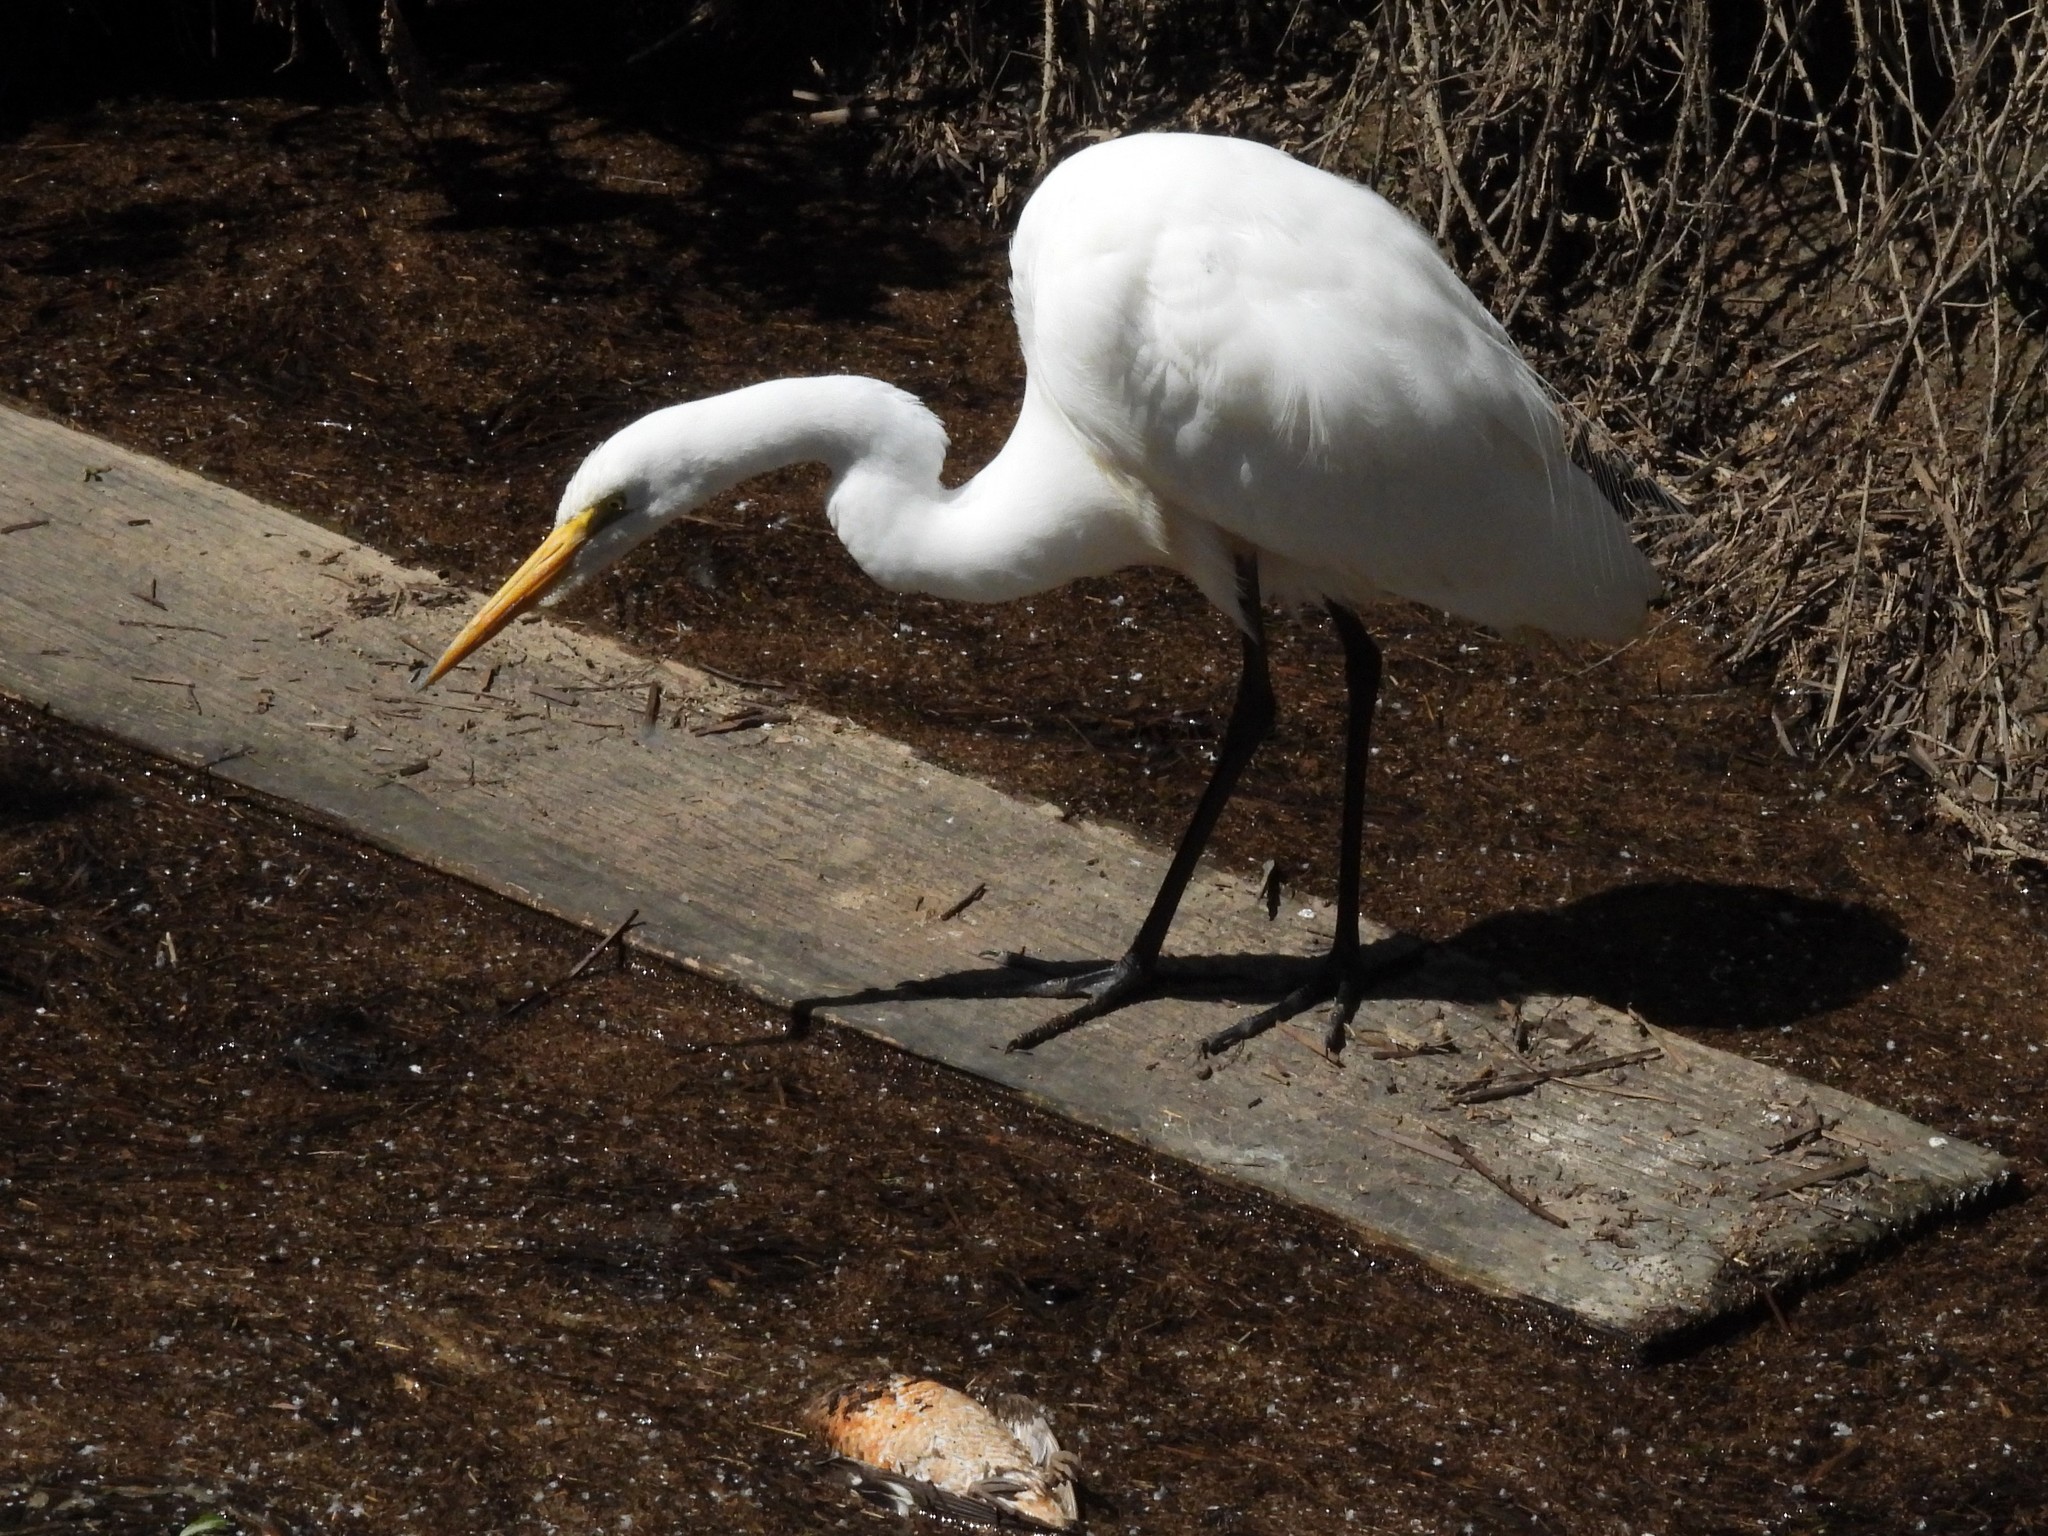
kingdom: Animalia
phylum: Chordata
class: Aves
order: Pelecaniformes
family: Ardeidae
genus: Ardea
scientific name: Ardea alba
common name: Great egret
